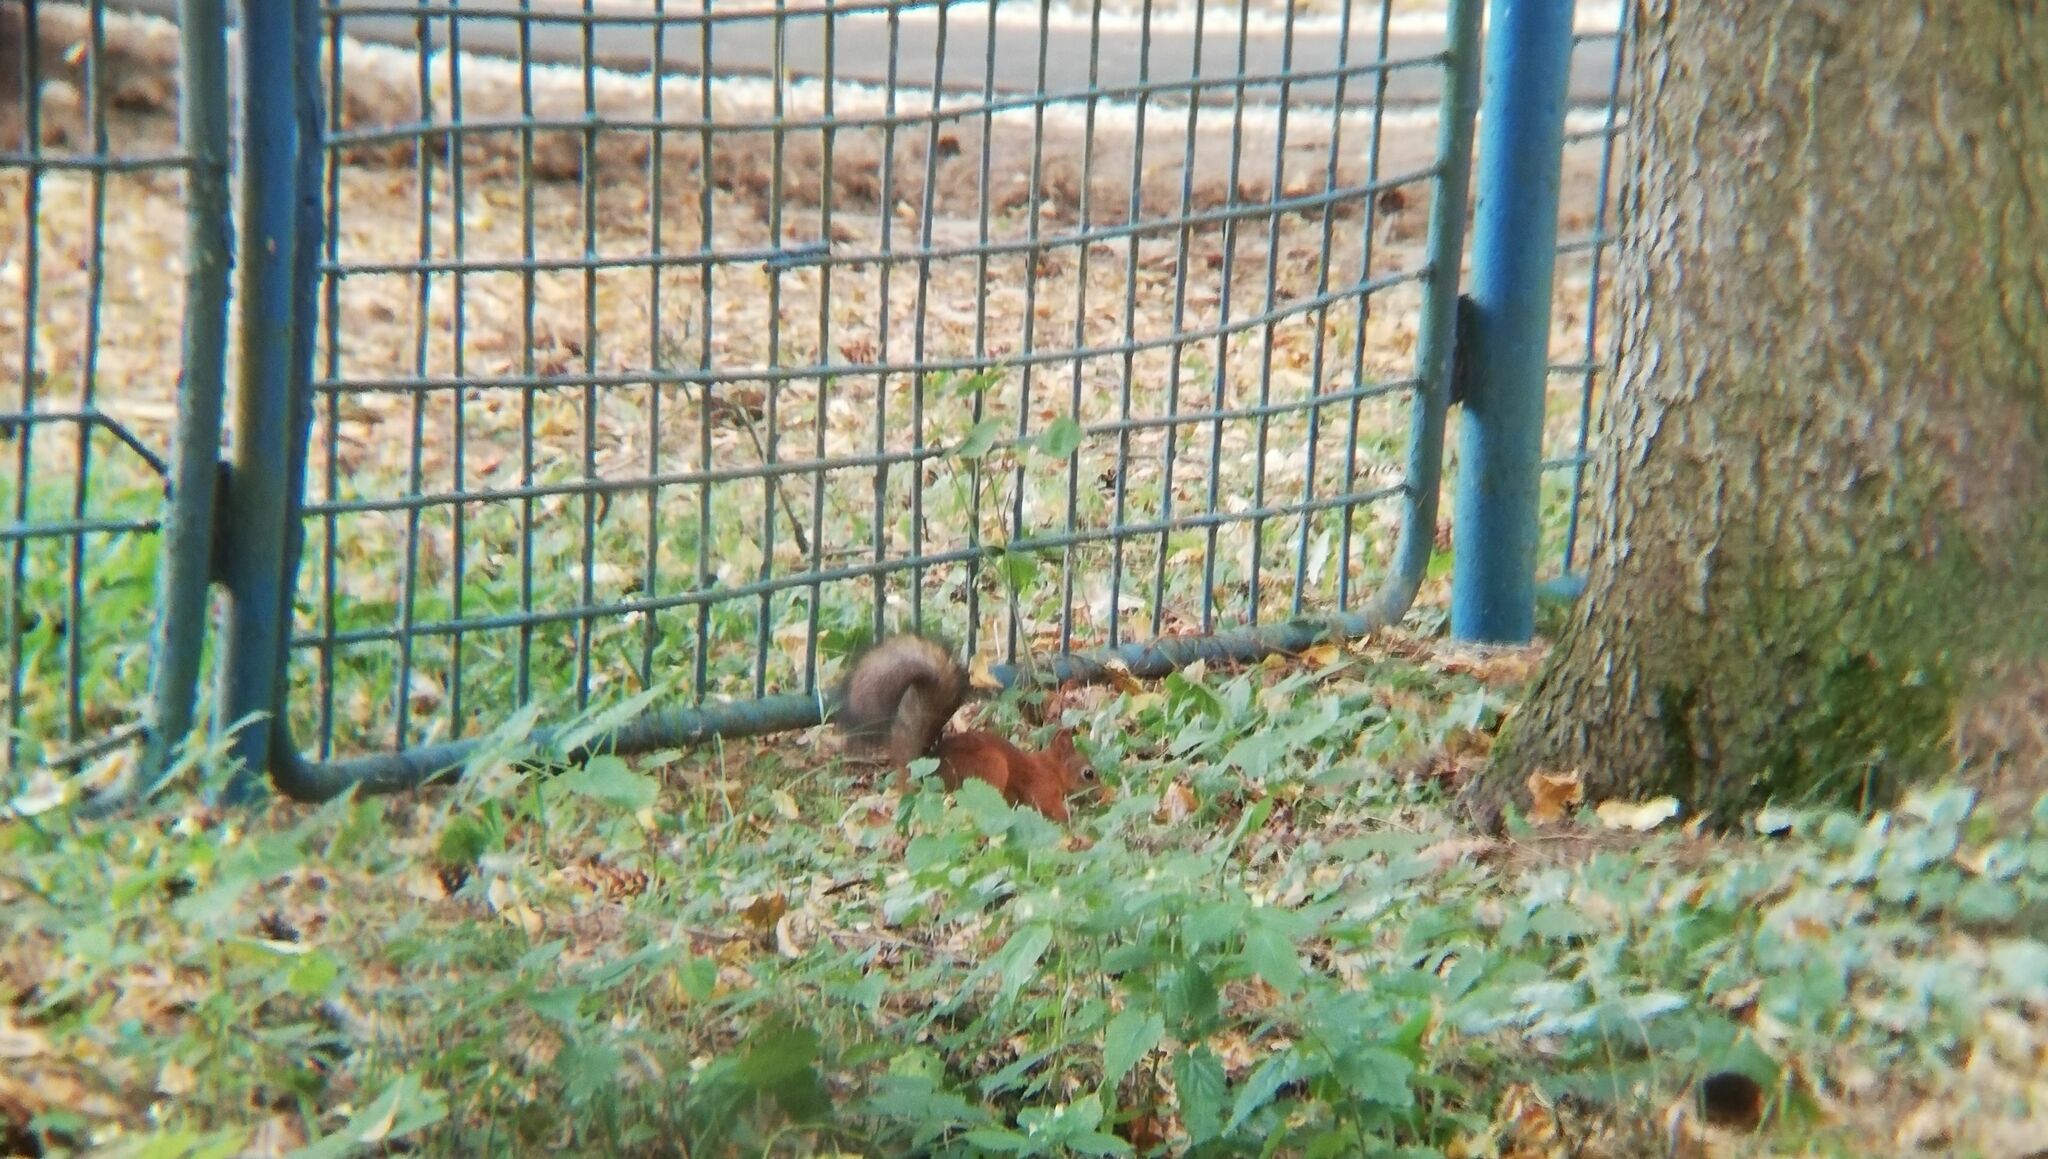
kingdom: Animalia
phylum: Chordata
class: Mammalia
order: Rodentia
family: Sciuridae
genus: Sciurus
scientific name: Sciurus vulgaris
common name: Eurasian red squirrel
